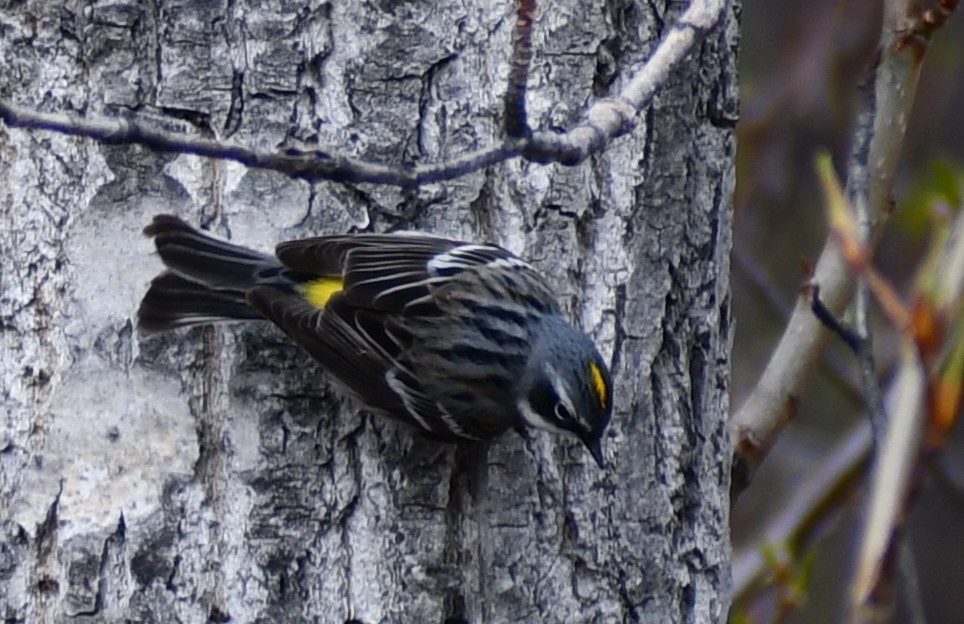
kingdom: Animalia
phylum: Chordata
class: Aves
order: Passeriformes
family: Parulidae
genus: Setophaga
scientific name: Setophaga coronata
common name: Myrtle warbler
